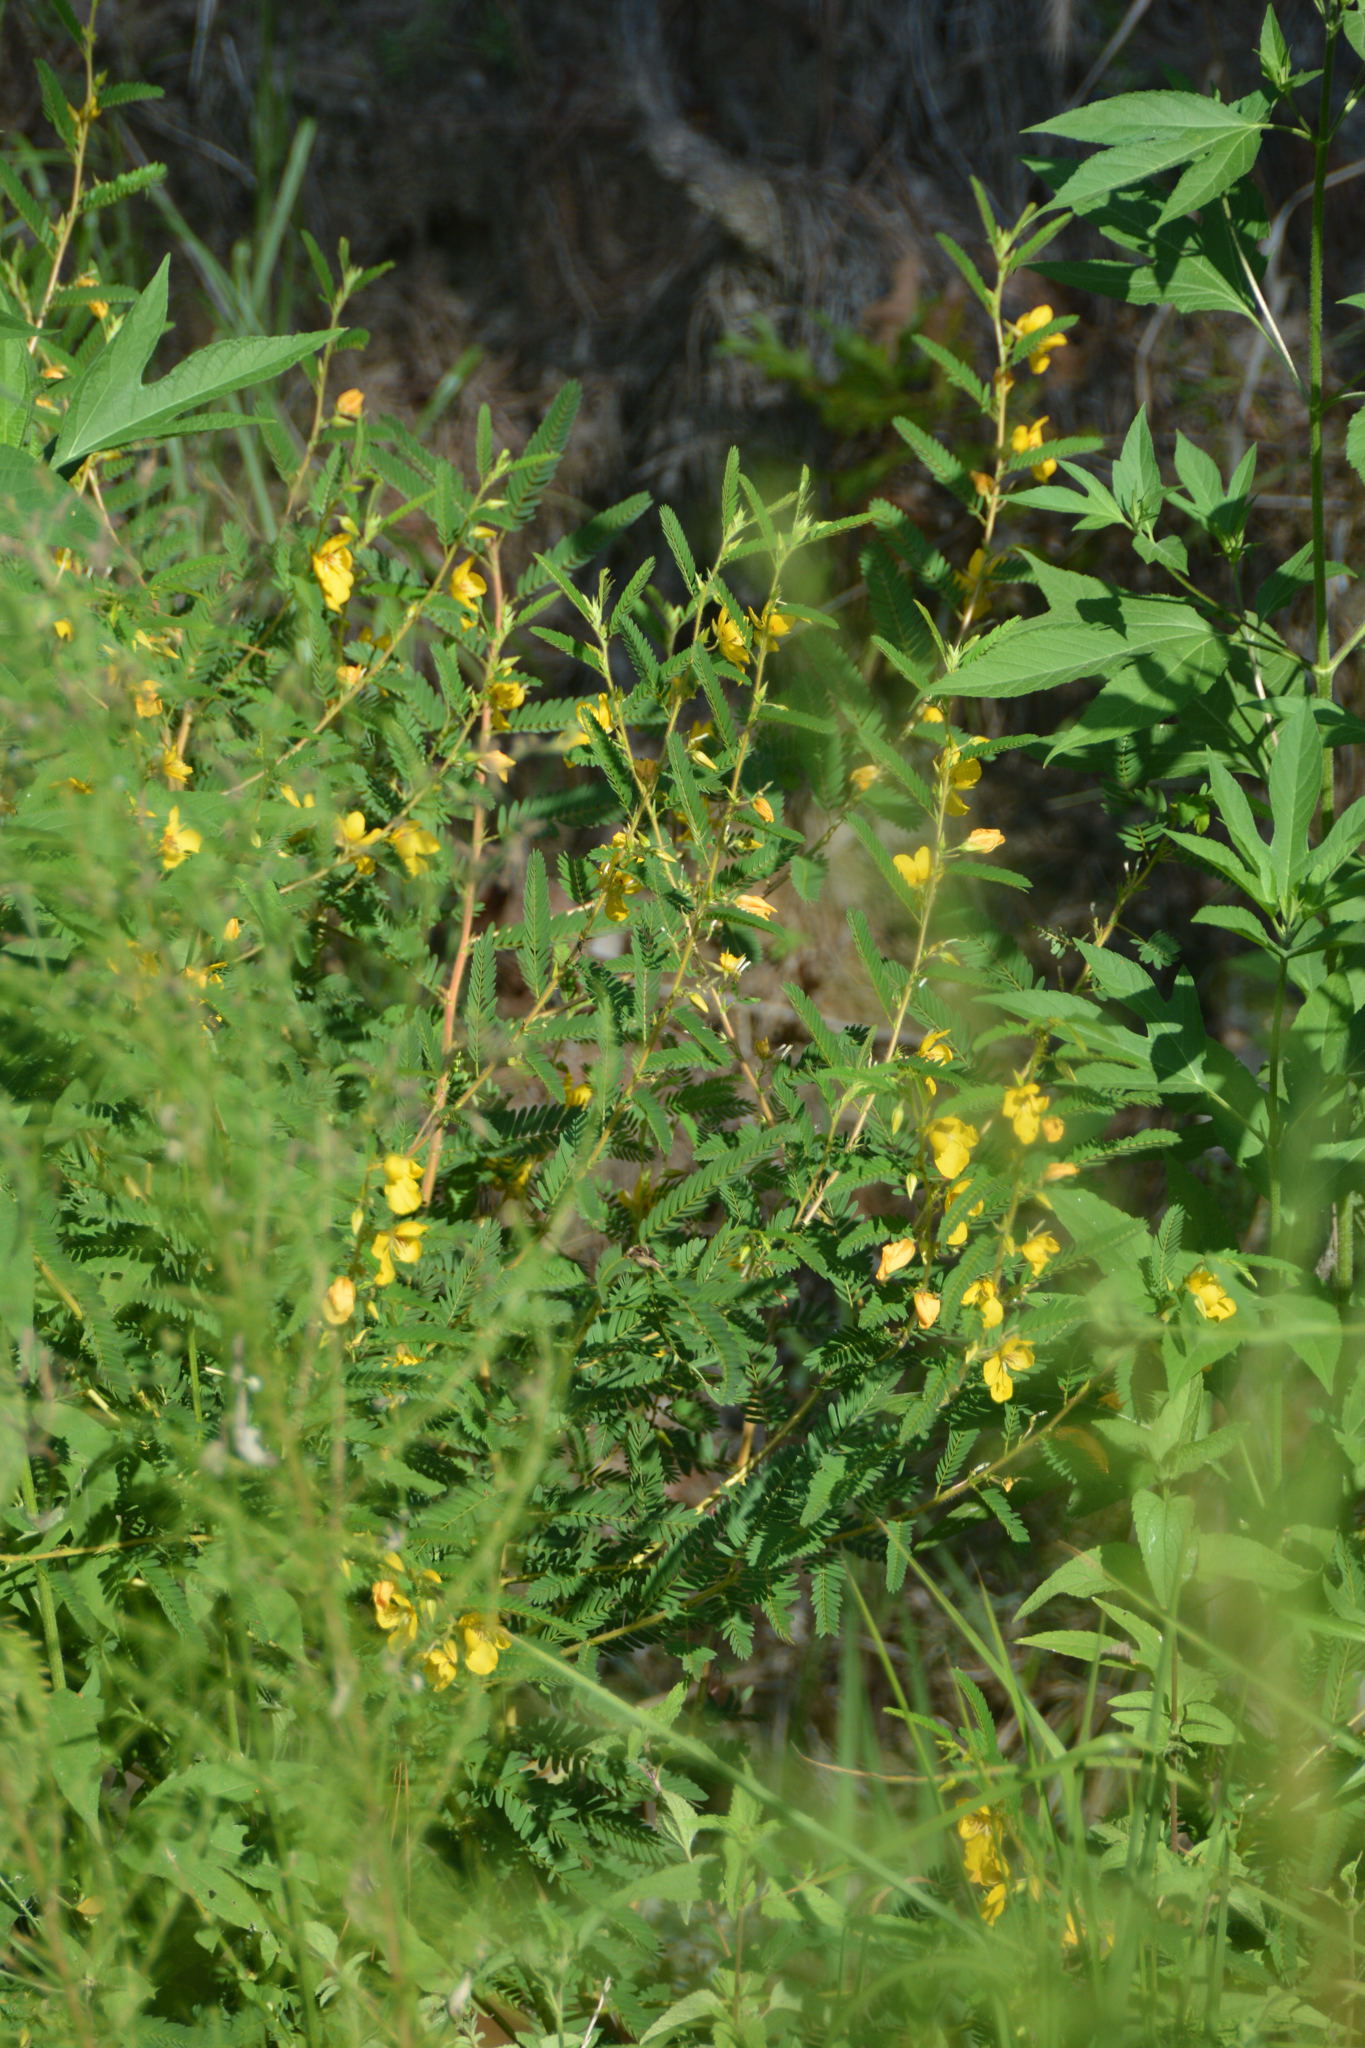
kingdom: Plantae
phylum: Tracheophyta
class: Magnoliopsida
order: Fabales
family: Fabaceae
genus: Chamaecrista
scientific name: Chamaecrista fasciculata
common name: Golden cassia
